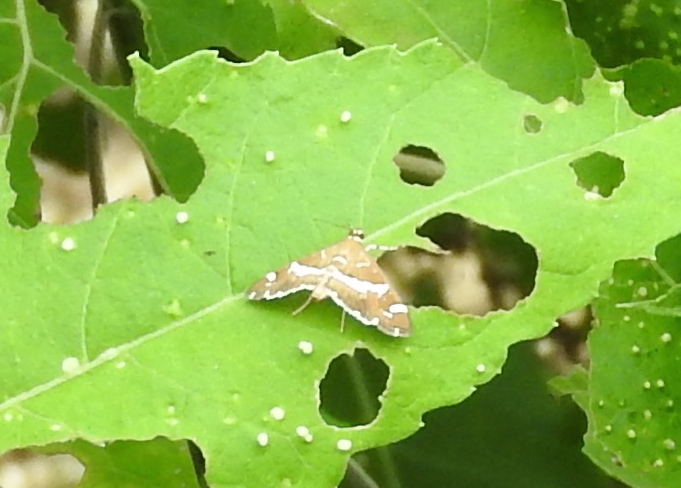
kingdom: Animalia
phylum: Arthropoda
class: Insecta
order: Lepidoptera
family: Crambidae
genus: Spoladea
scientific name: Spoladea recurvalis
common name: Beet webworm moth
